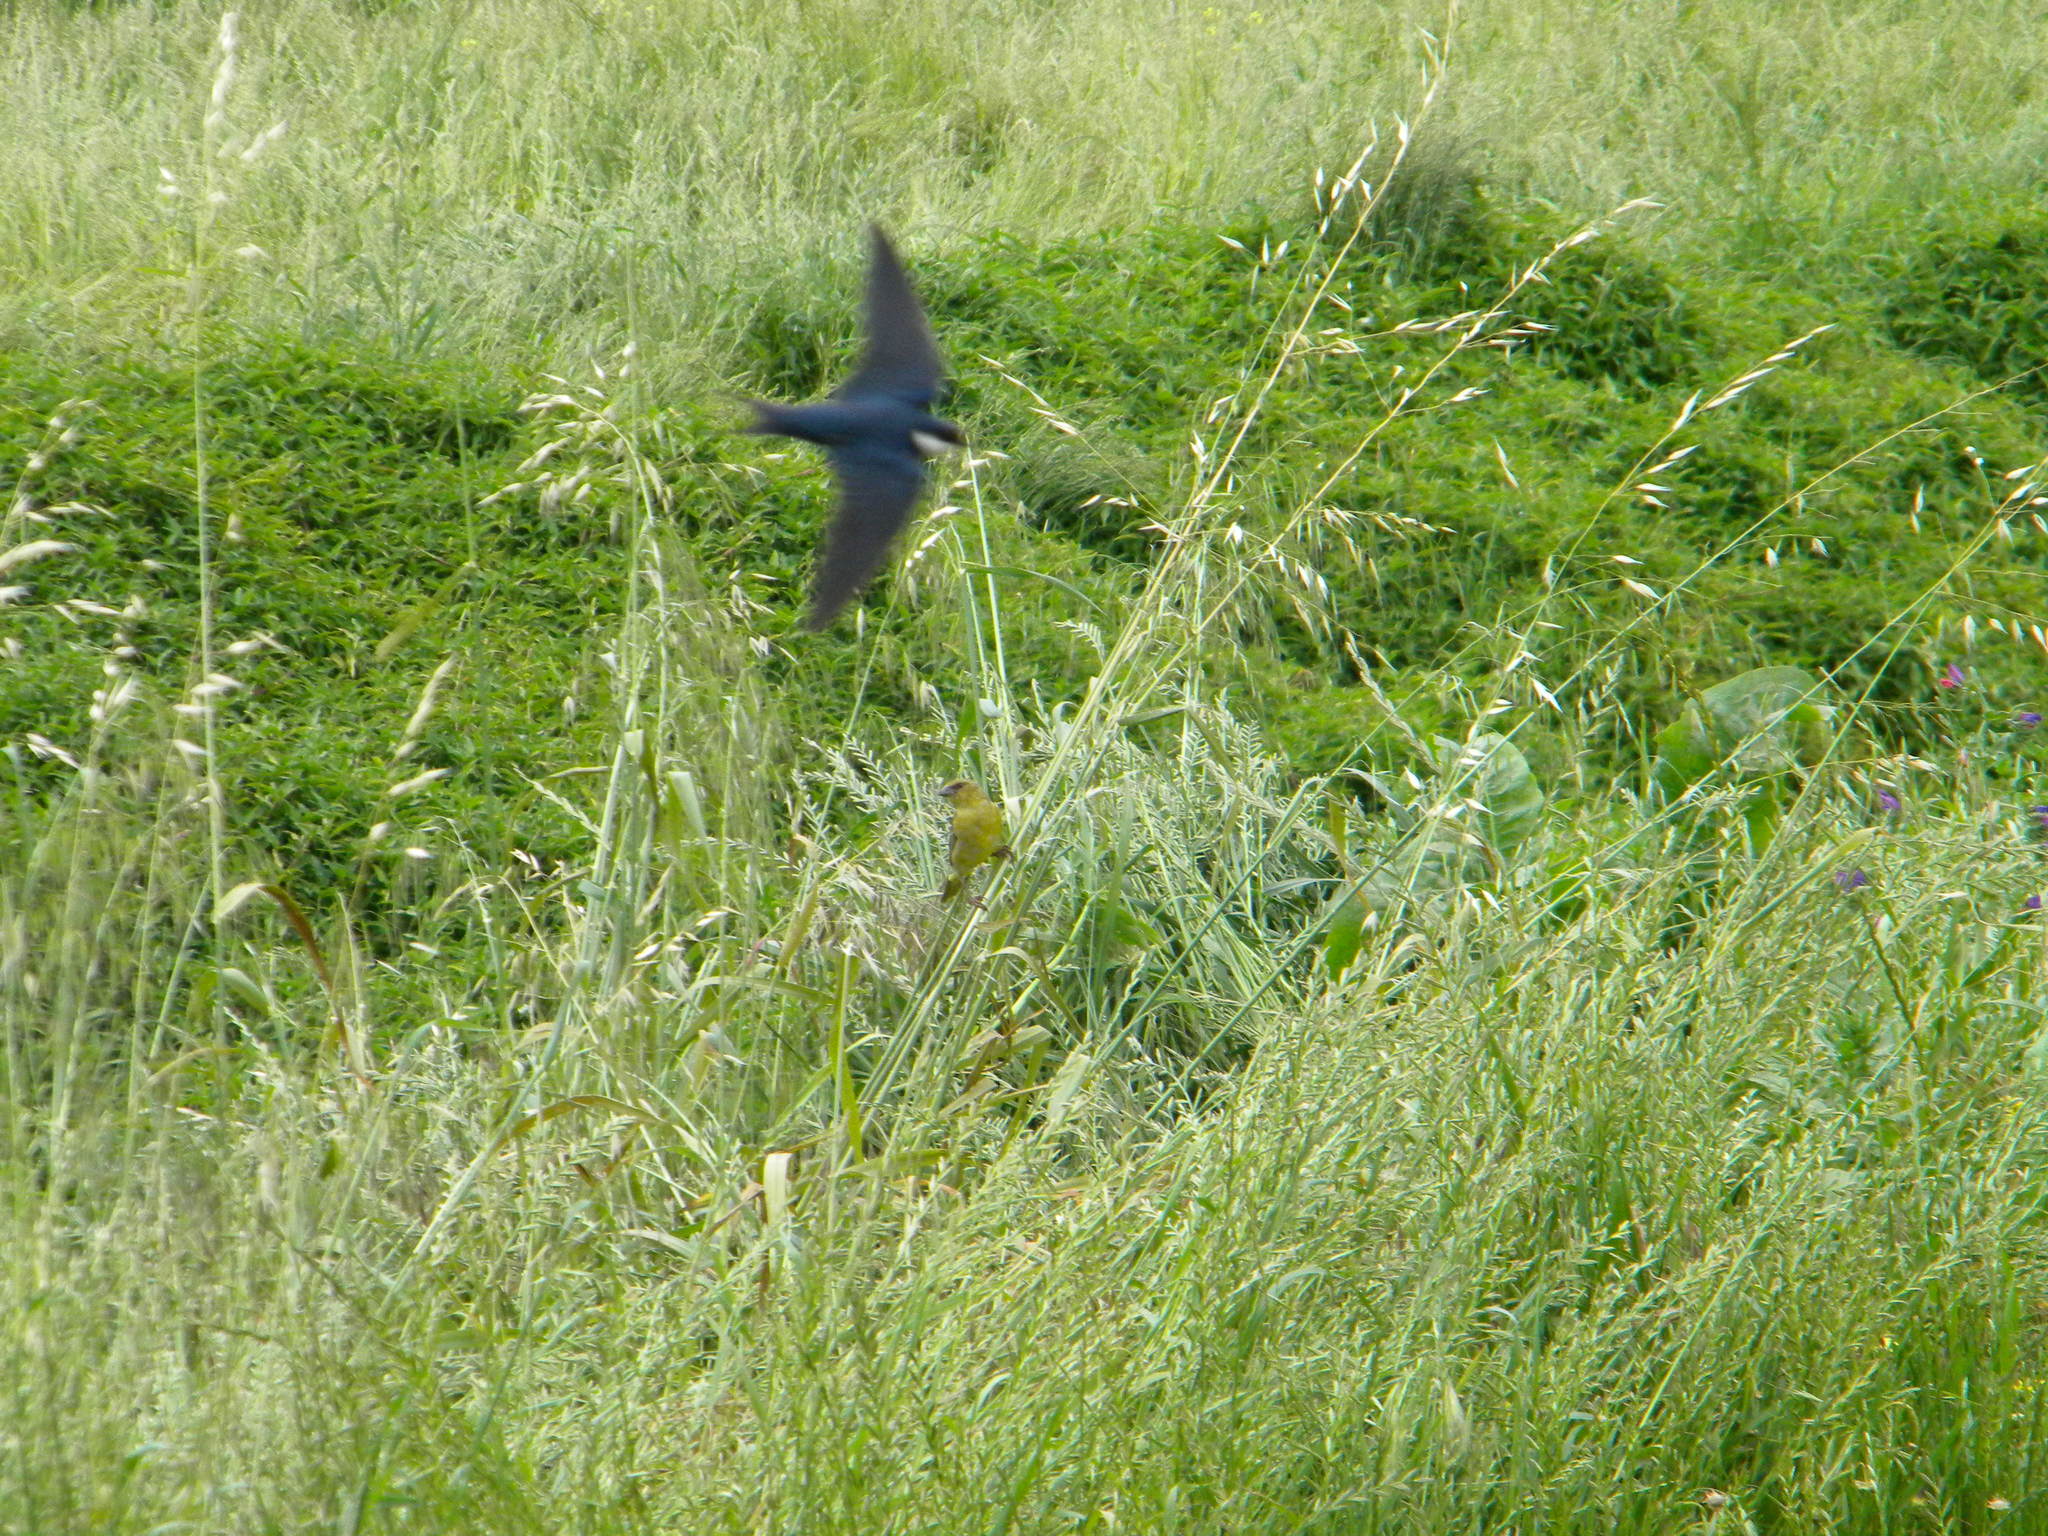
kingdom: Animalia
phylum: Chordata
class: Aves
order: Passeriformes
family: Hirundinidae
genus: Hirundo
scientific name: Hirundo albigularis
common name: White-throated swallow
